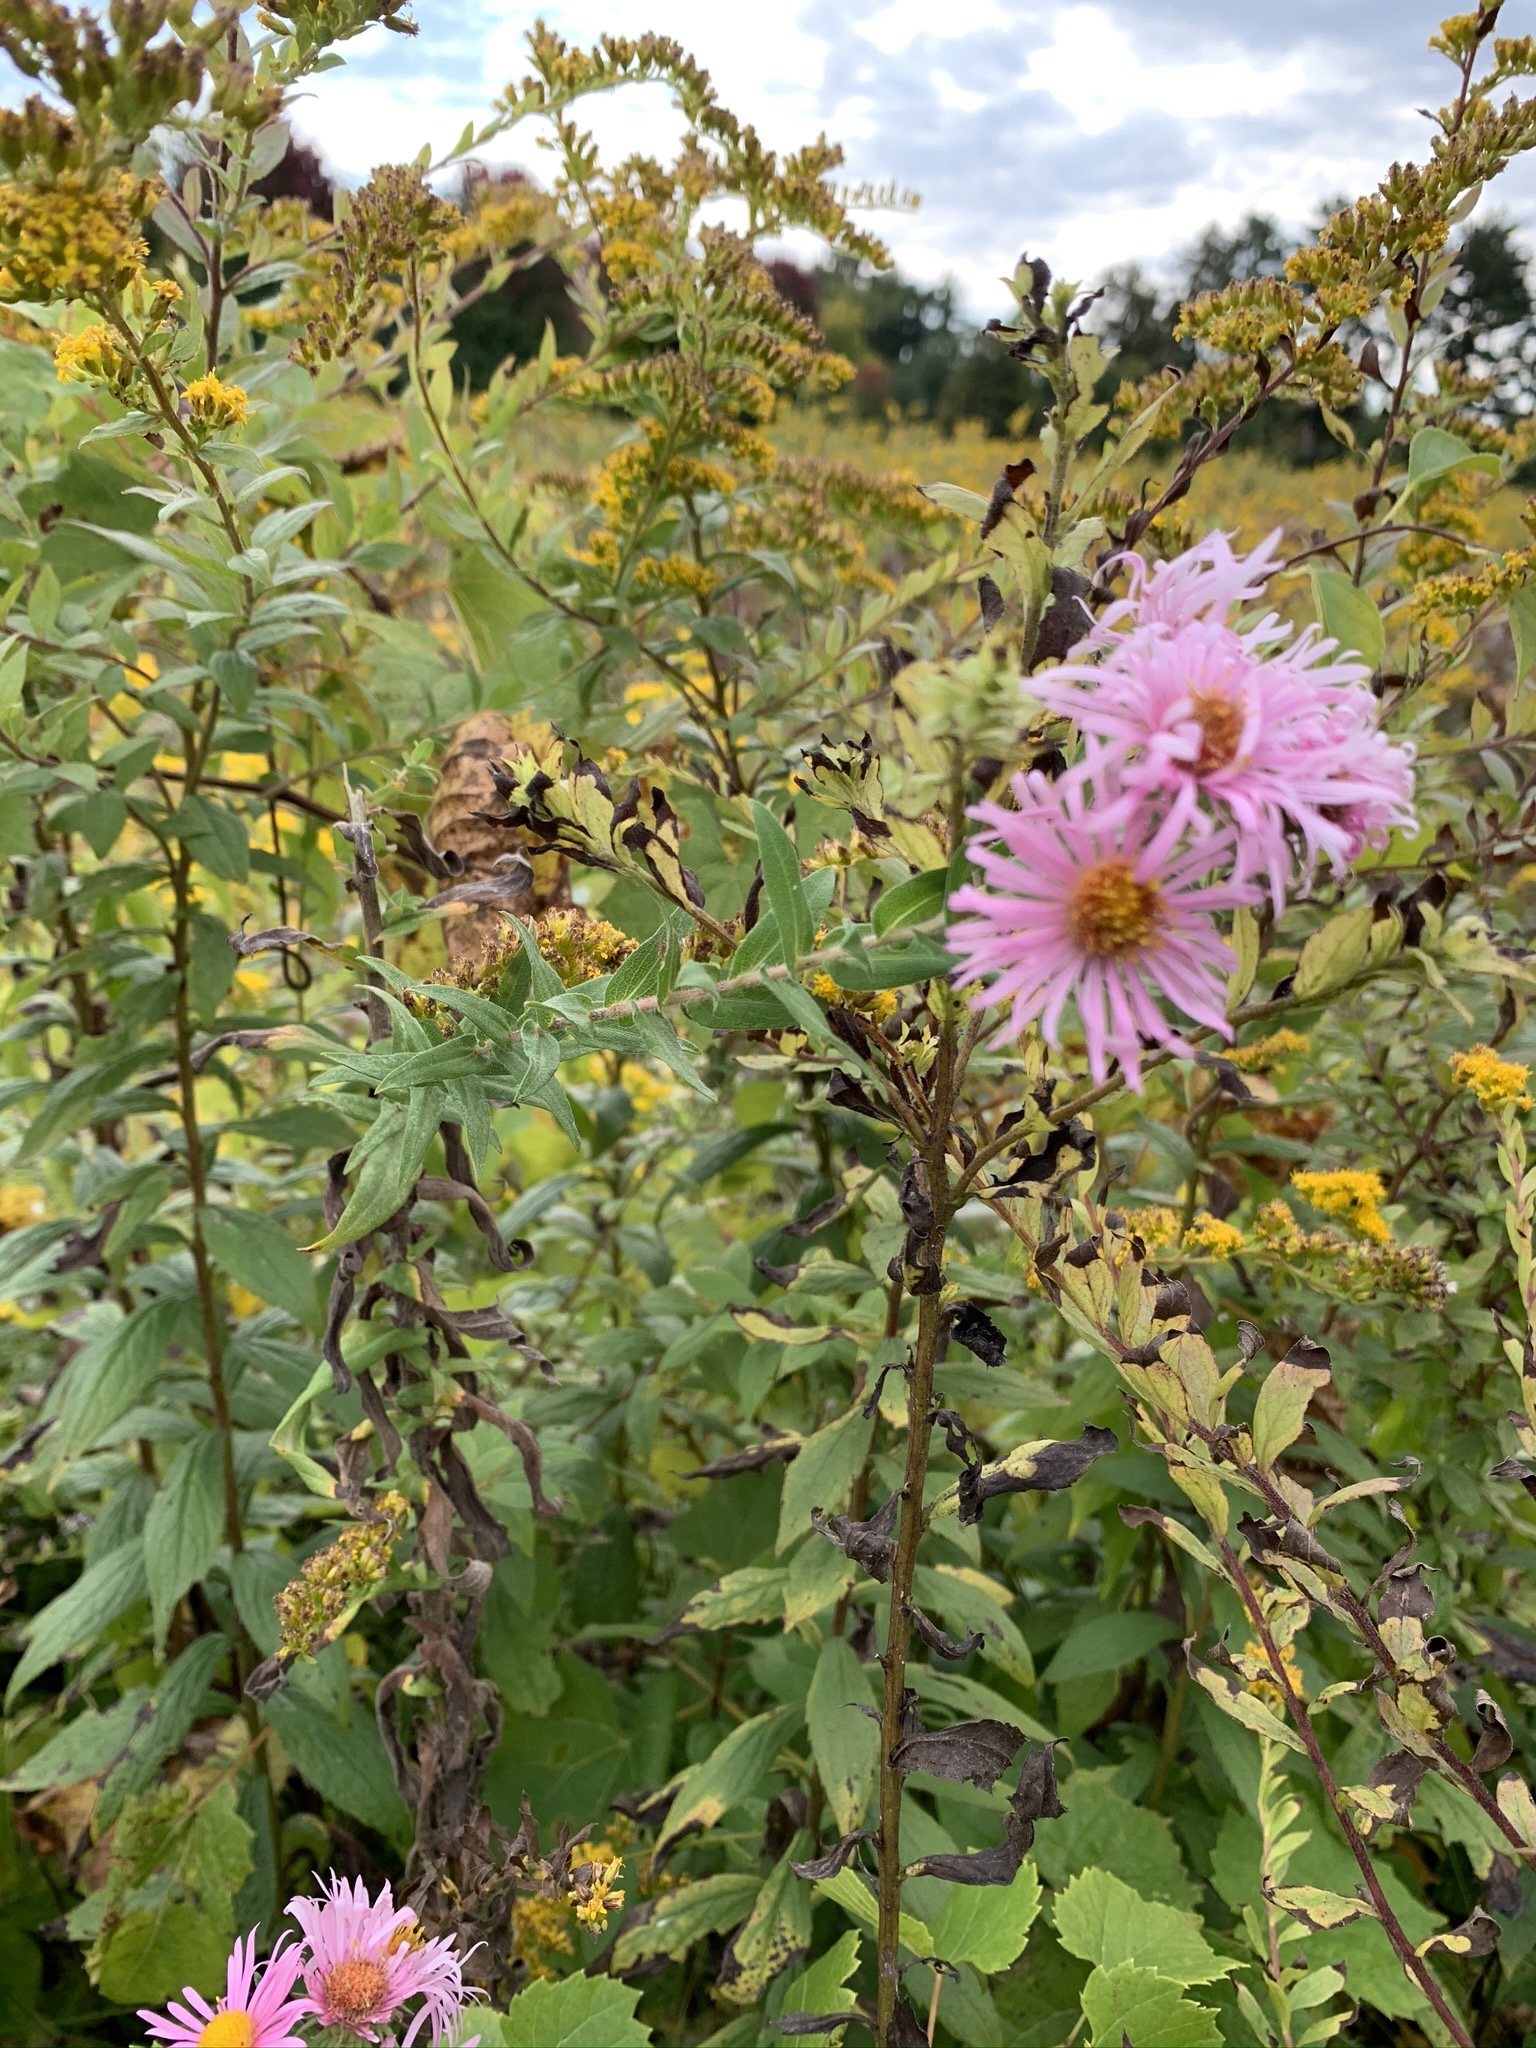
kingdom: Plantae
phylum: Tracheophyta
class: Magnoliopsida
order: Asterales
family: Asteraceae
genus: Symphyotrichum
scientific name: Symphyotrichum novae-angliae
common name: Michaelmas daisy
